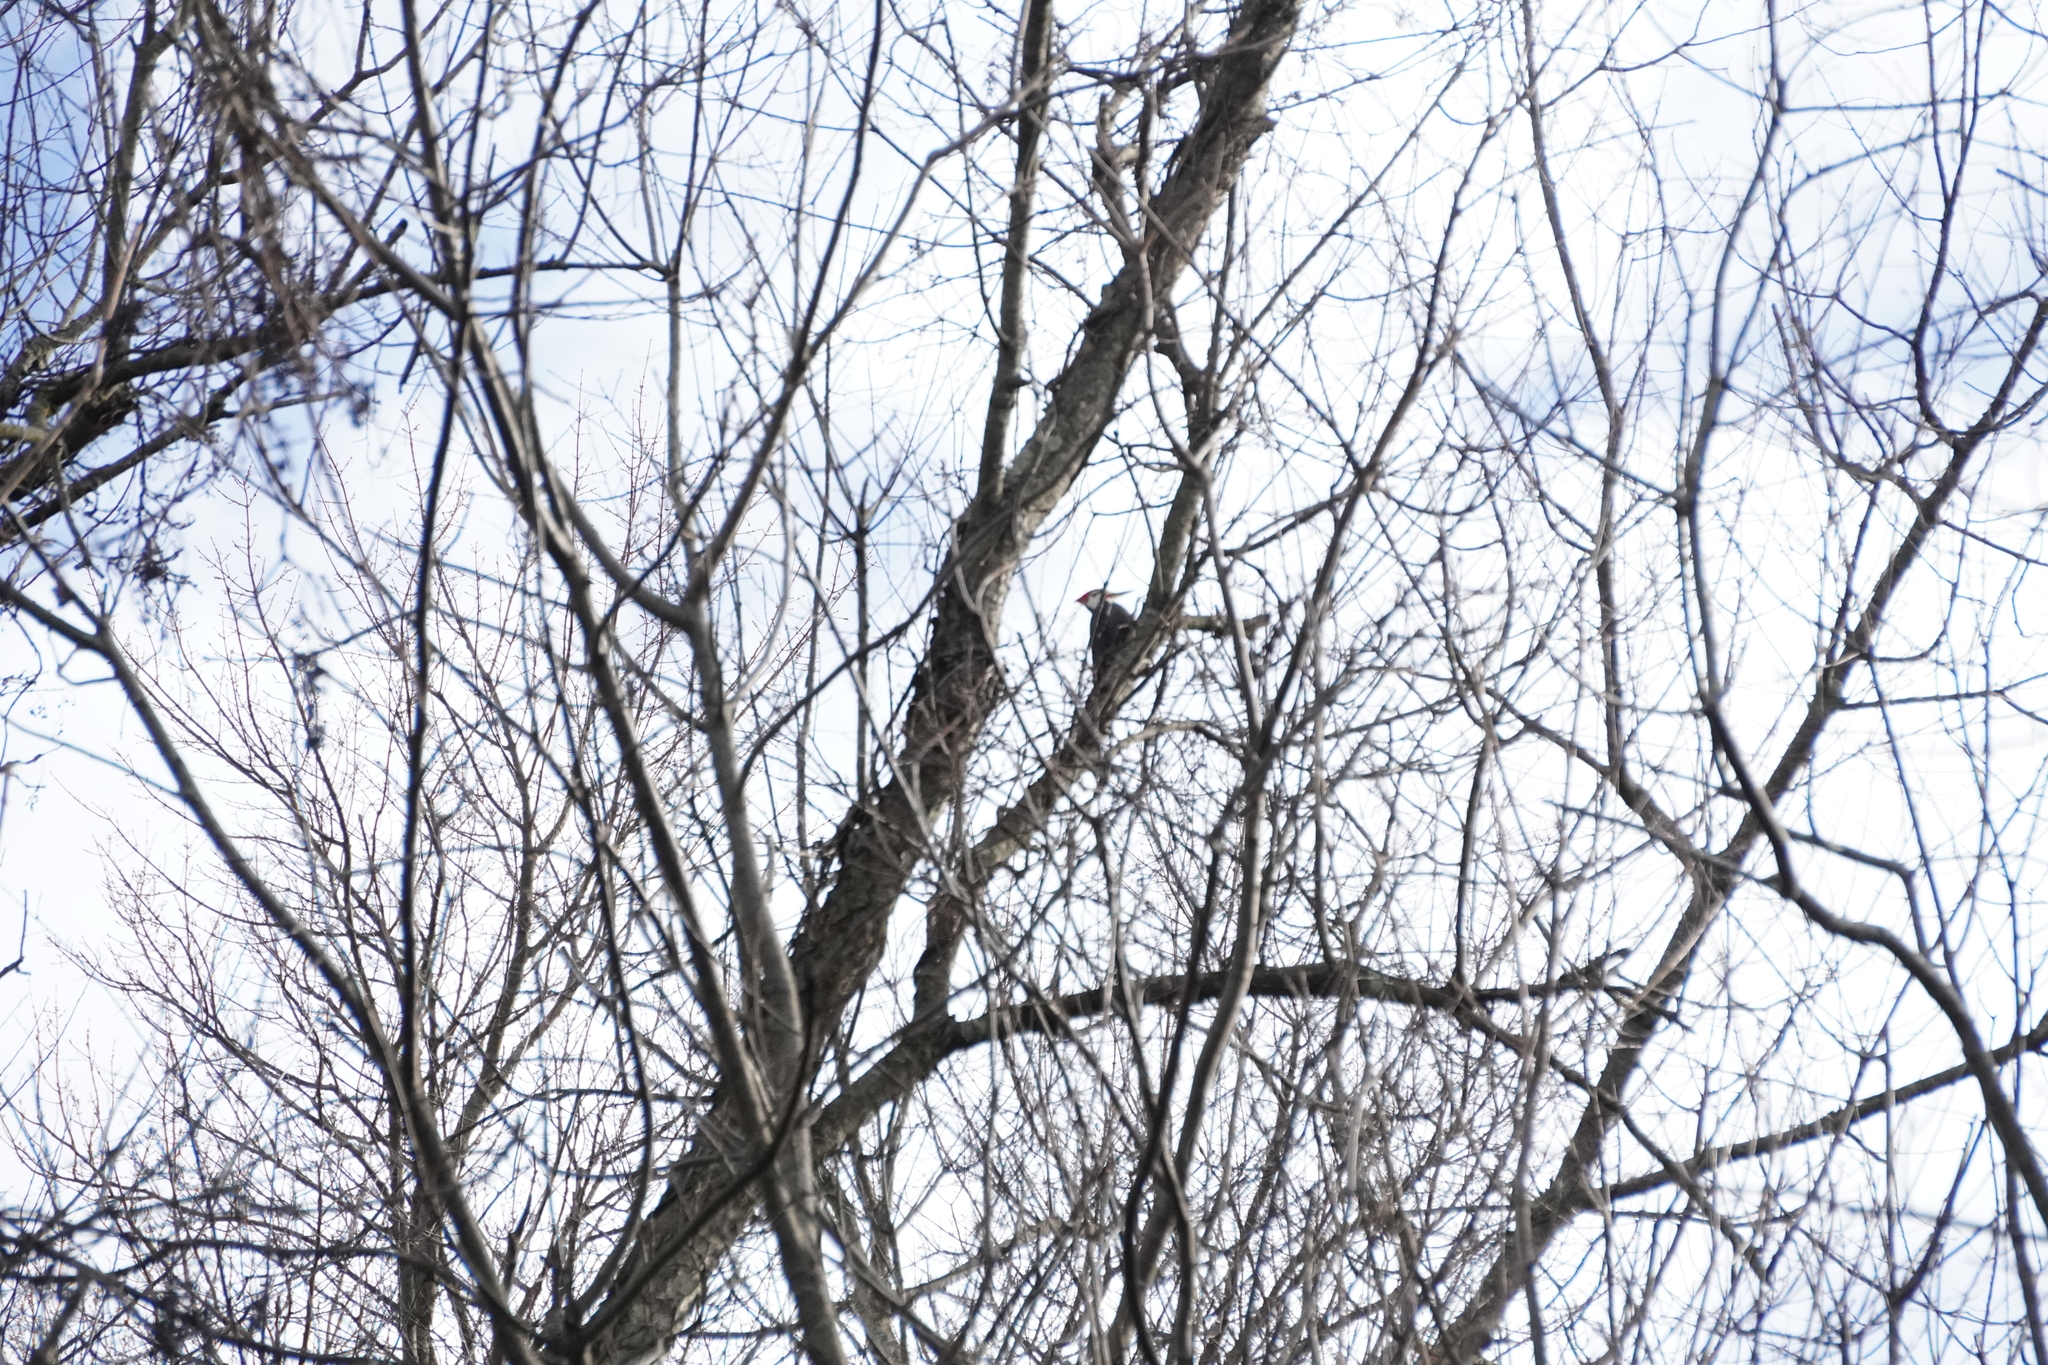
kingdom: Animalia
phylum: Chordata
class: Aves
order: Piciformes
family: Picidae
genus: Dryocopus
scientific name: Dryocopus pileatus
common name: Pileated woodpecker
